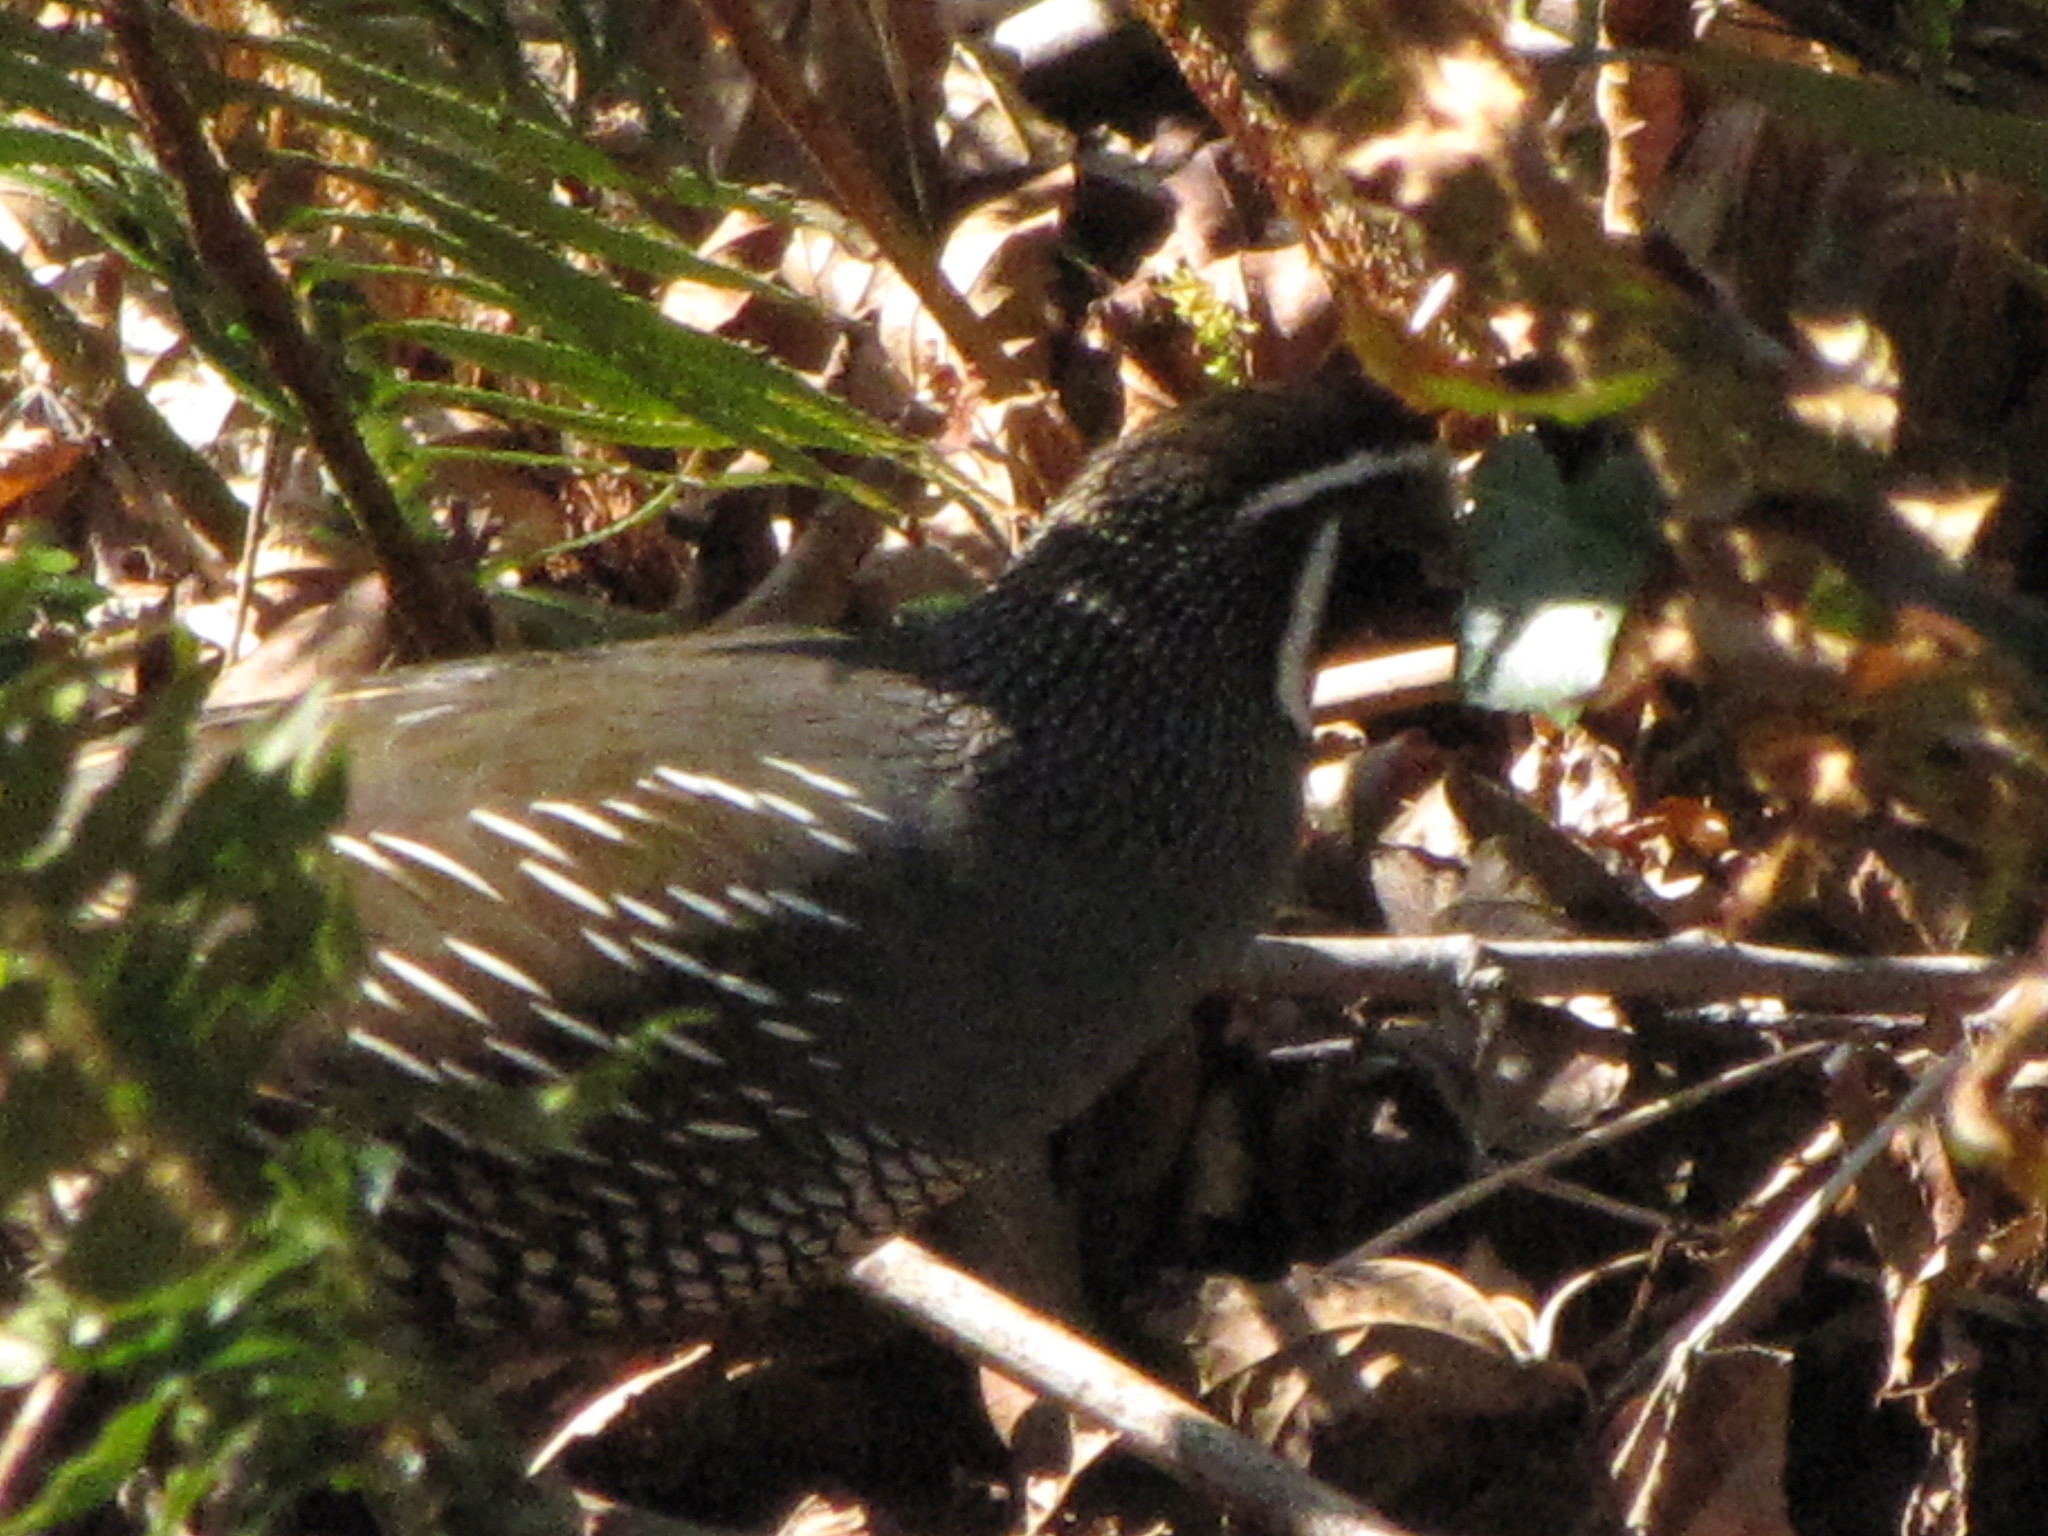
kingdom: Animalia
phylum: Chordata
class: Aves
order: Galliformes
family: Odontophoridae
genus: Callipepla
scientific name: Callipepla californica
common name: California quail
